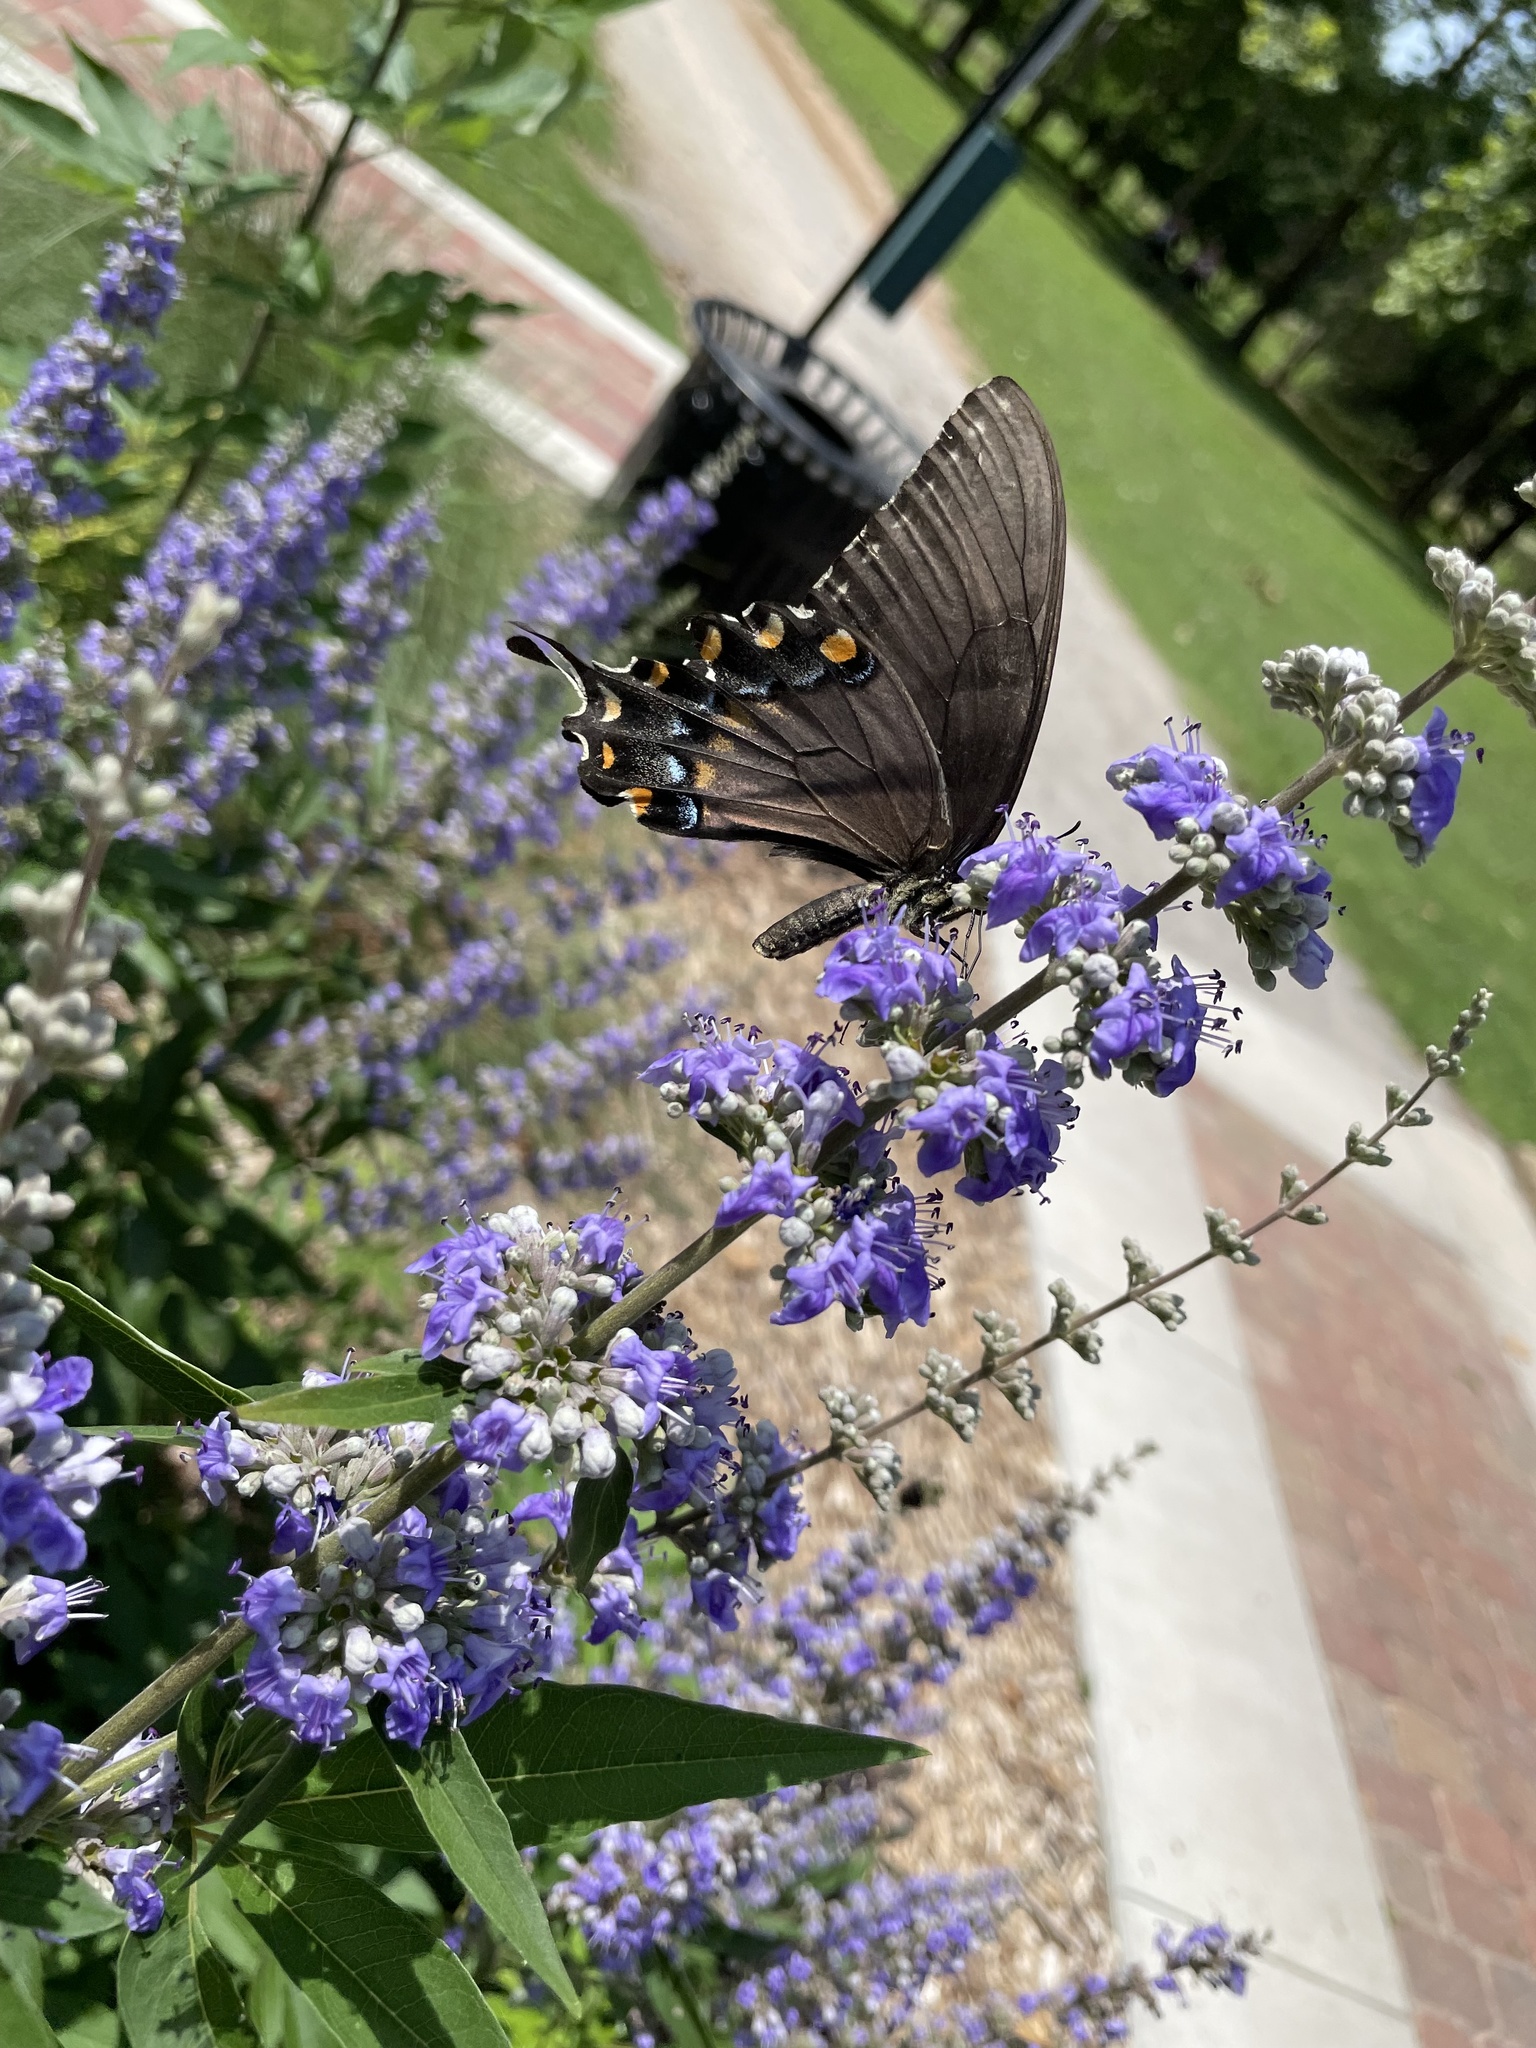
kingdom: Animalia
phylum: Arthropoda
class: Insecta
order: Lepidoptera
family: Papilionidae
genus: Papilio
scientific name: Papilio glaucus
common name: Tiger swallowtail
